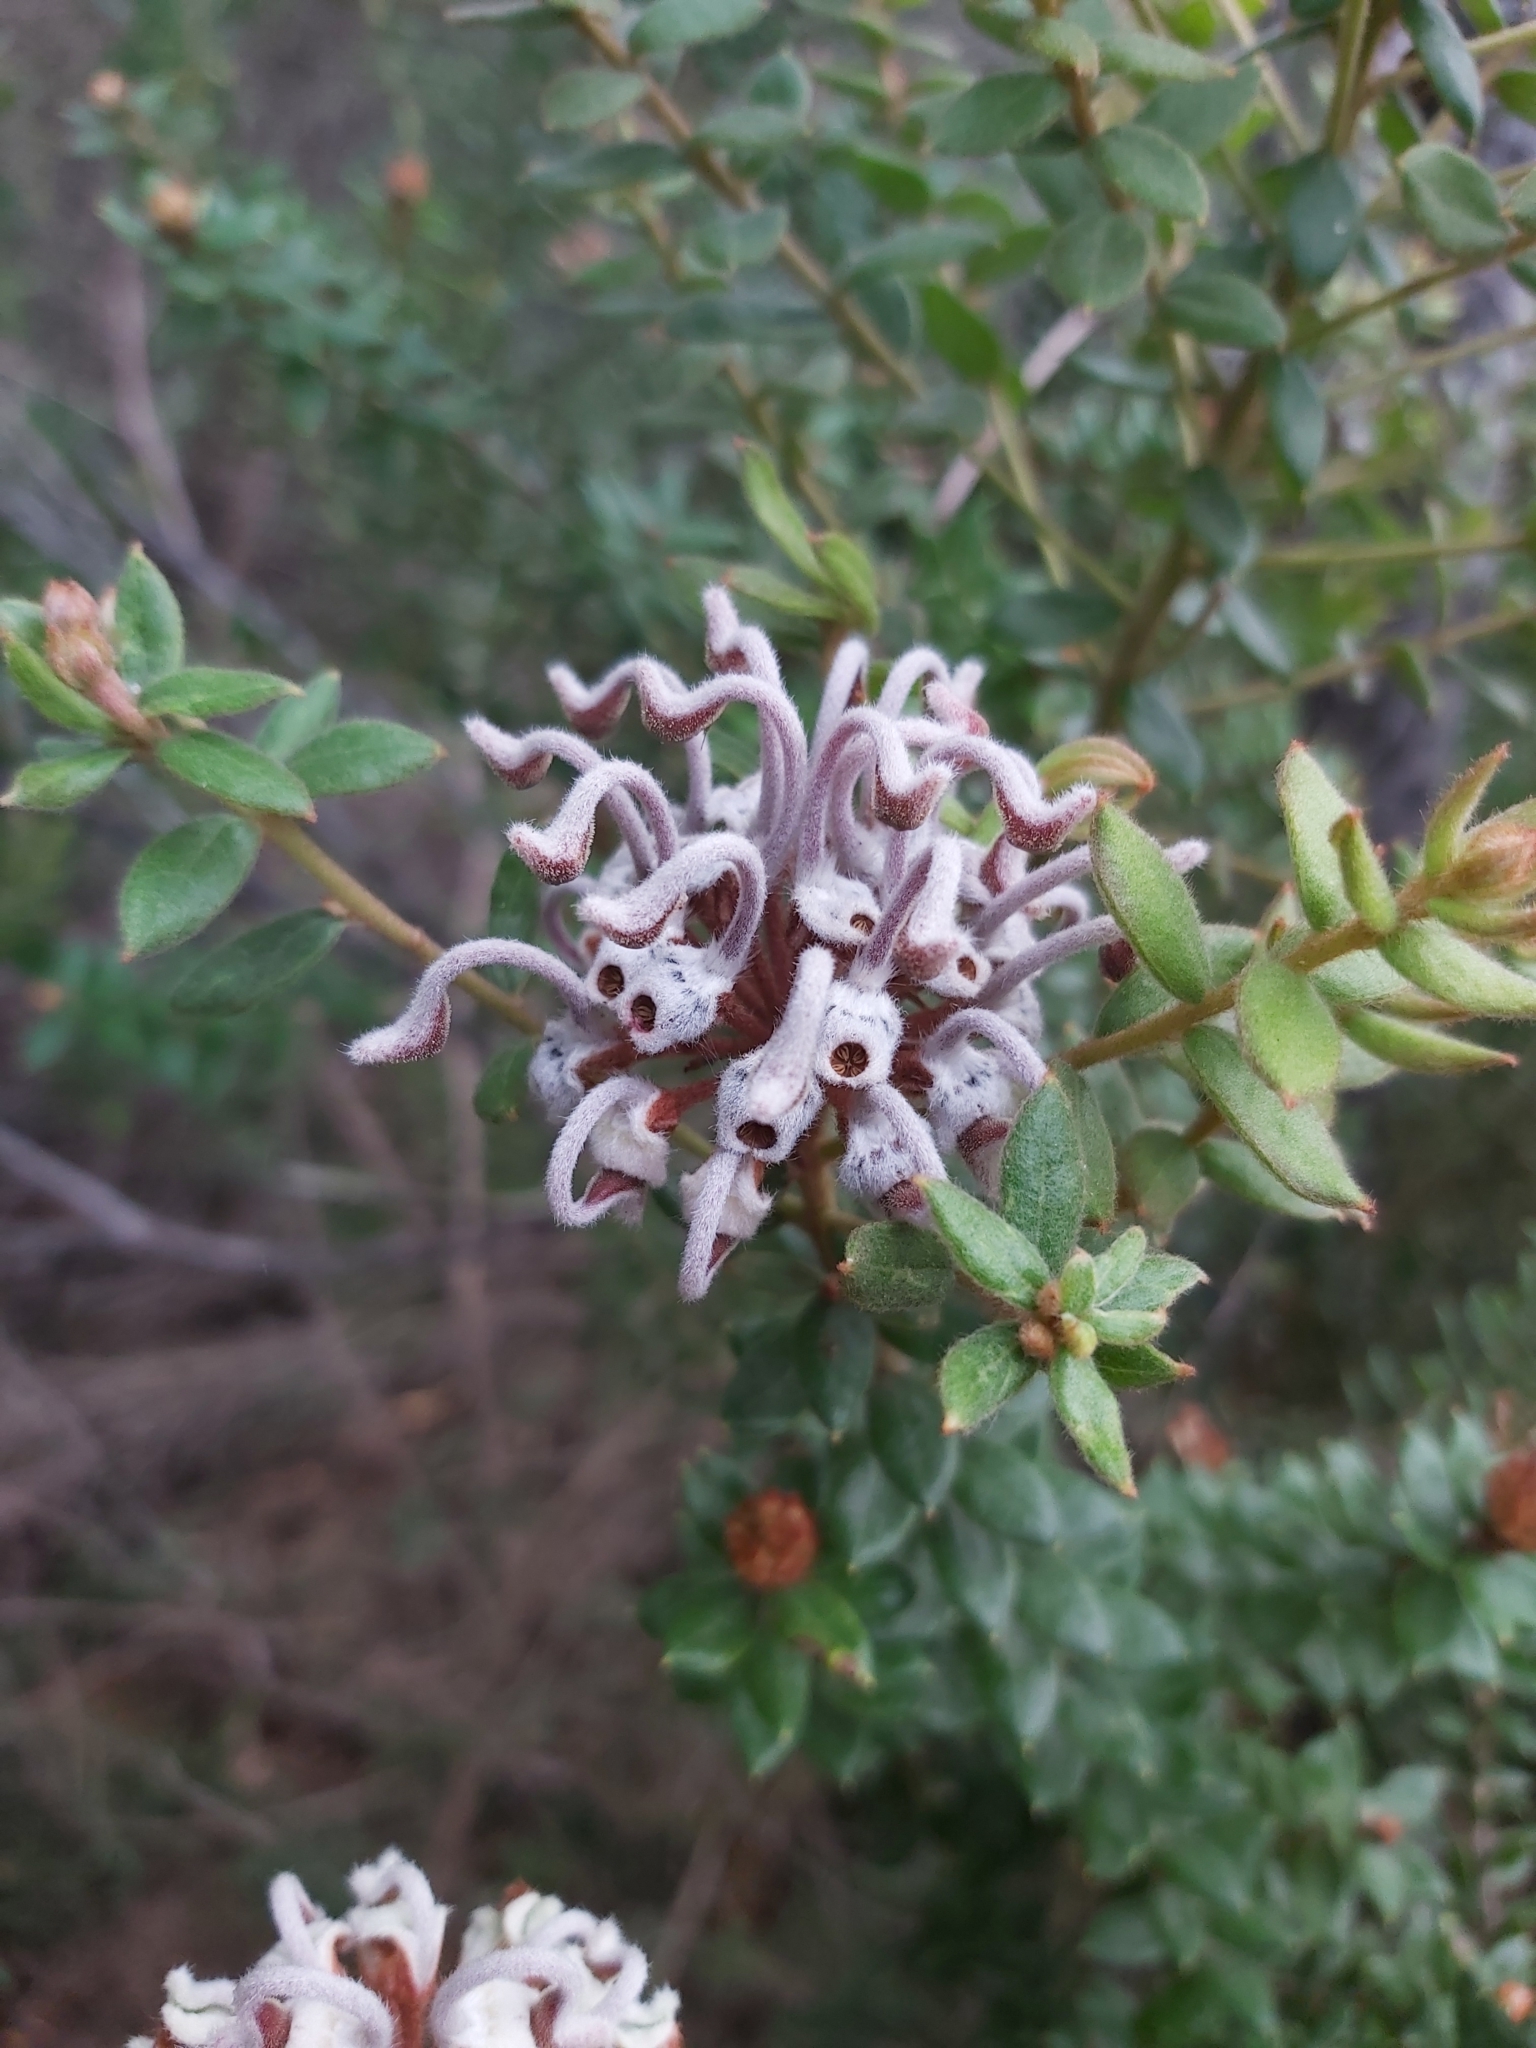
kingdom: Plantae
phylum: Tracheophyta
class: Magnoliopsida
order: Proteales
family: Proteaceae
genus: Grevillea
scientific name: Grevillea buxifolia
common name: Grey spiderflower
